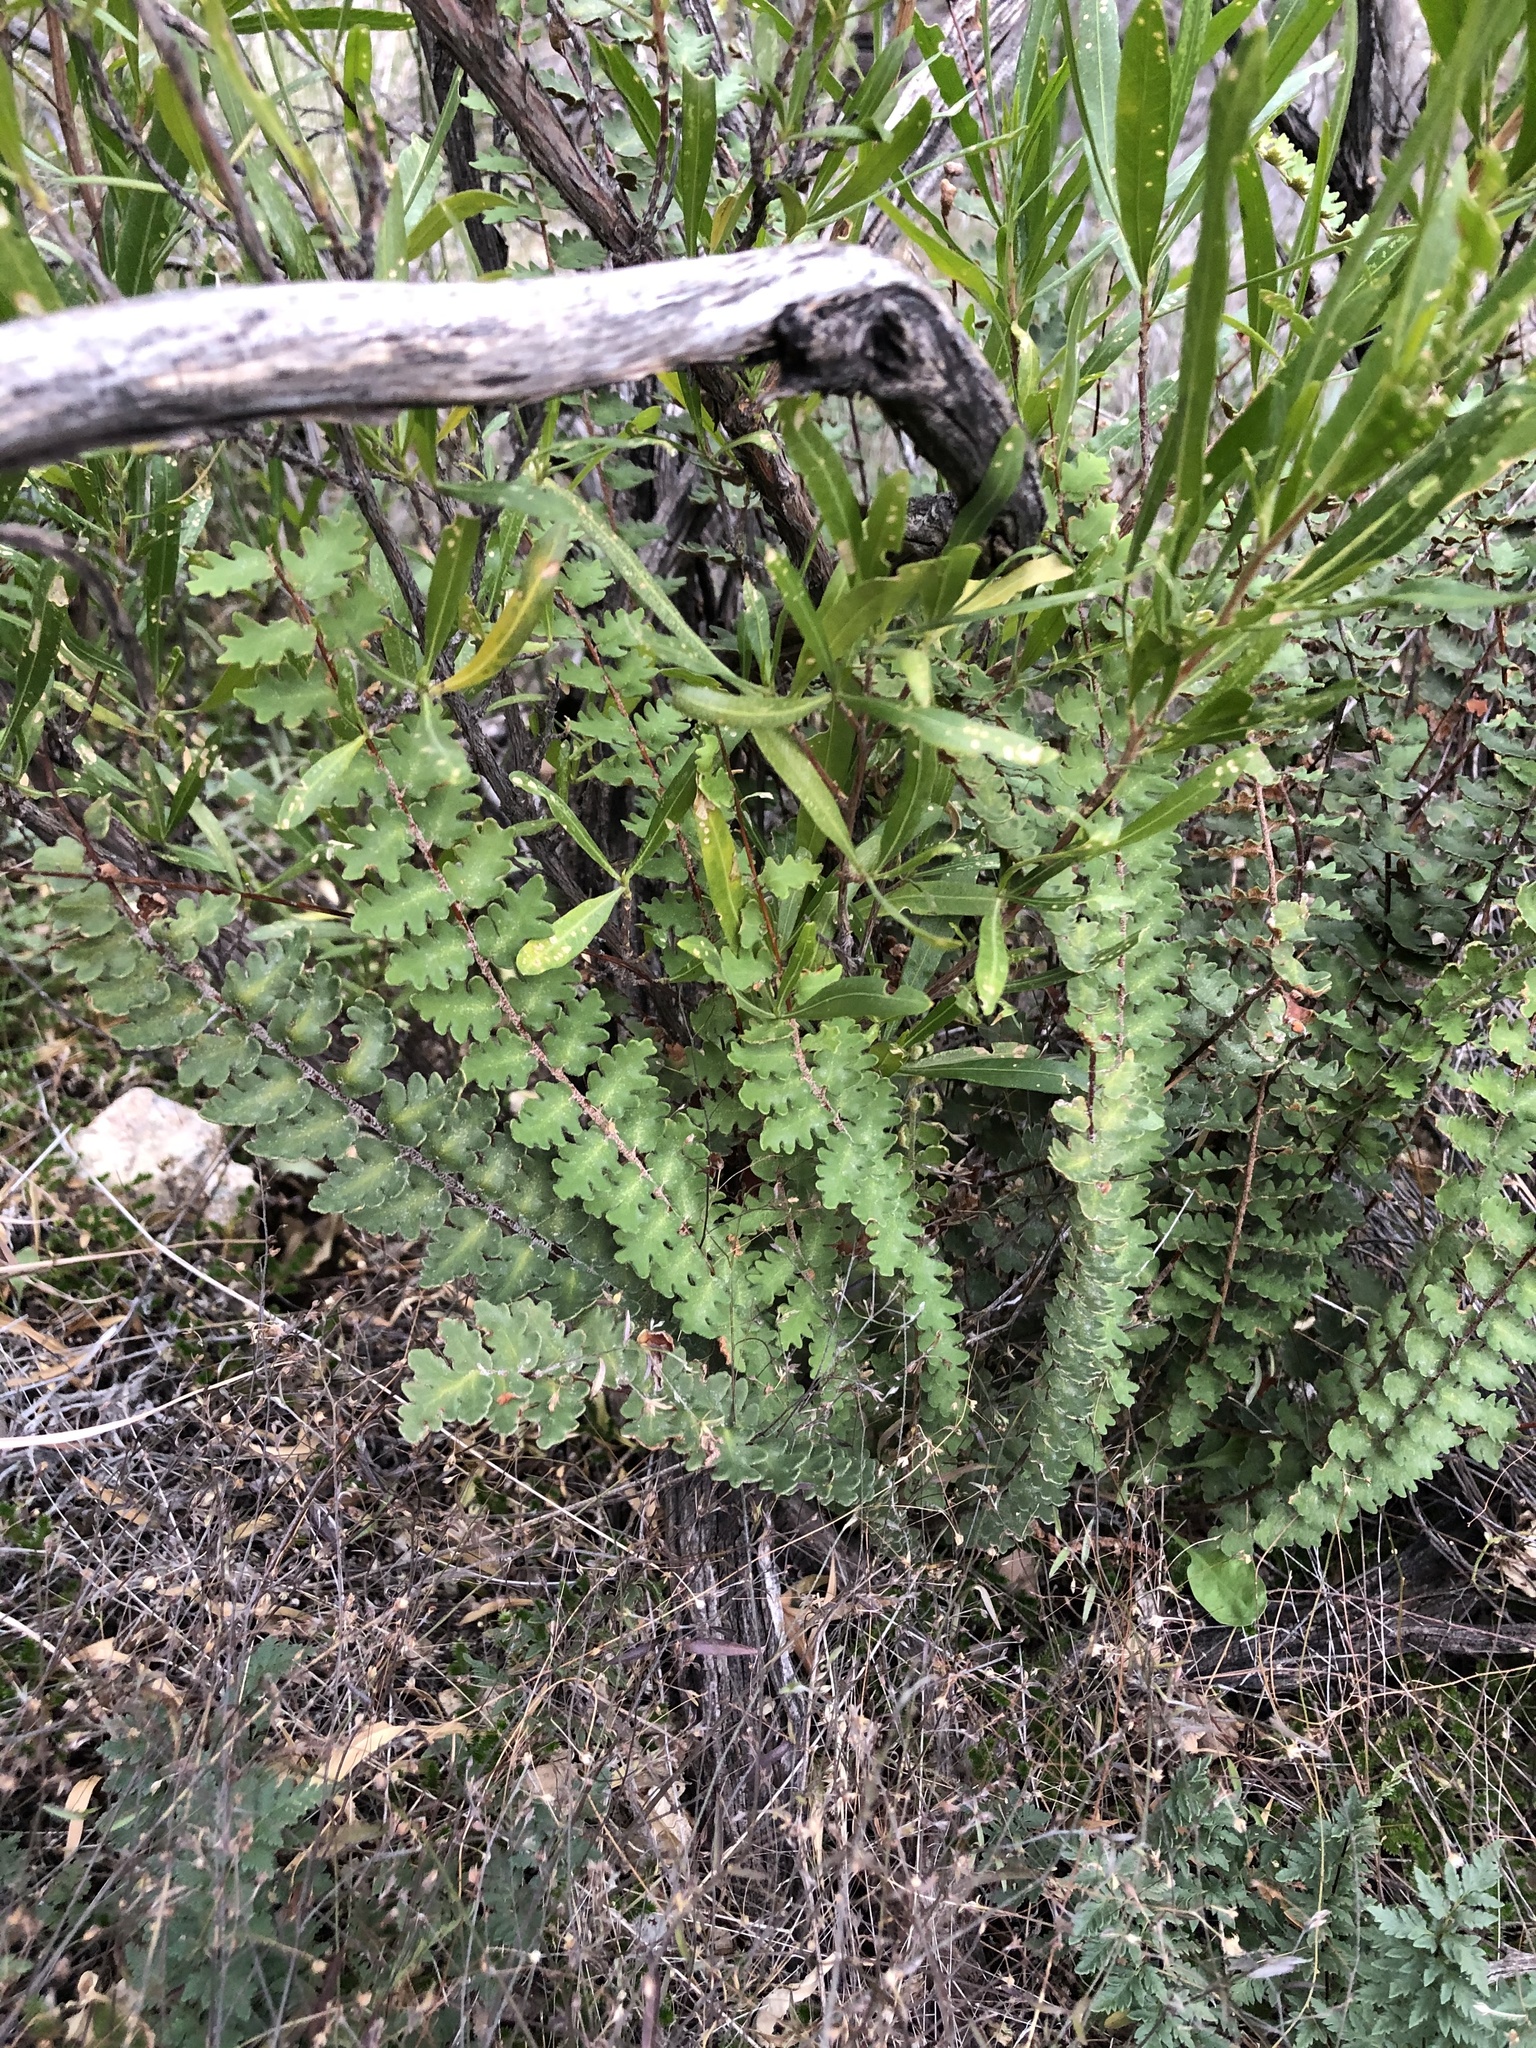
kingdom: Plantae
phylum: Tracheophyta
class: Polypodiopsida
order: Polypodiales
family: Pteridaceae
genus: Astrolepis
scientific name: Astrolepis sinuata
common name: Wavy scaly cloakfern
